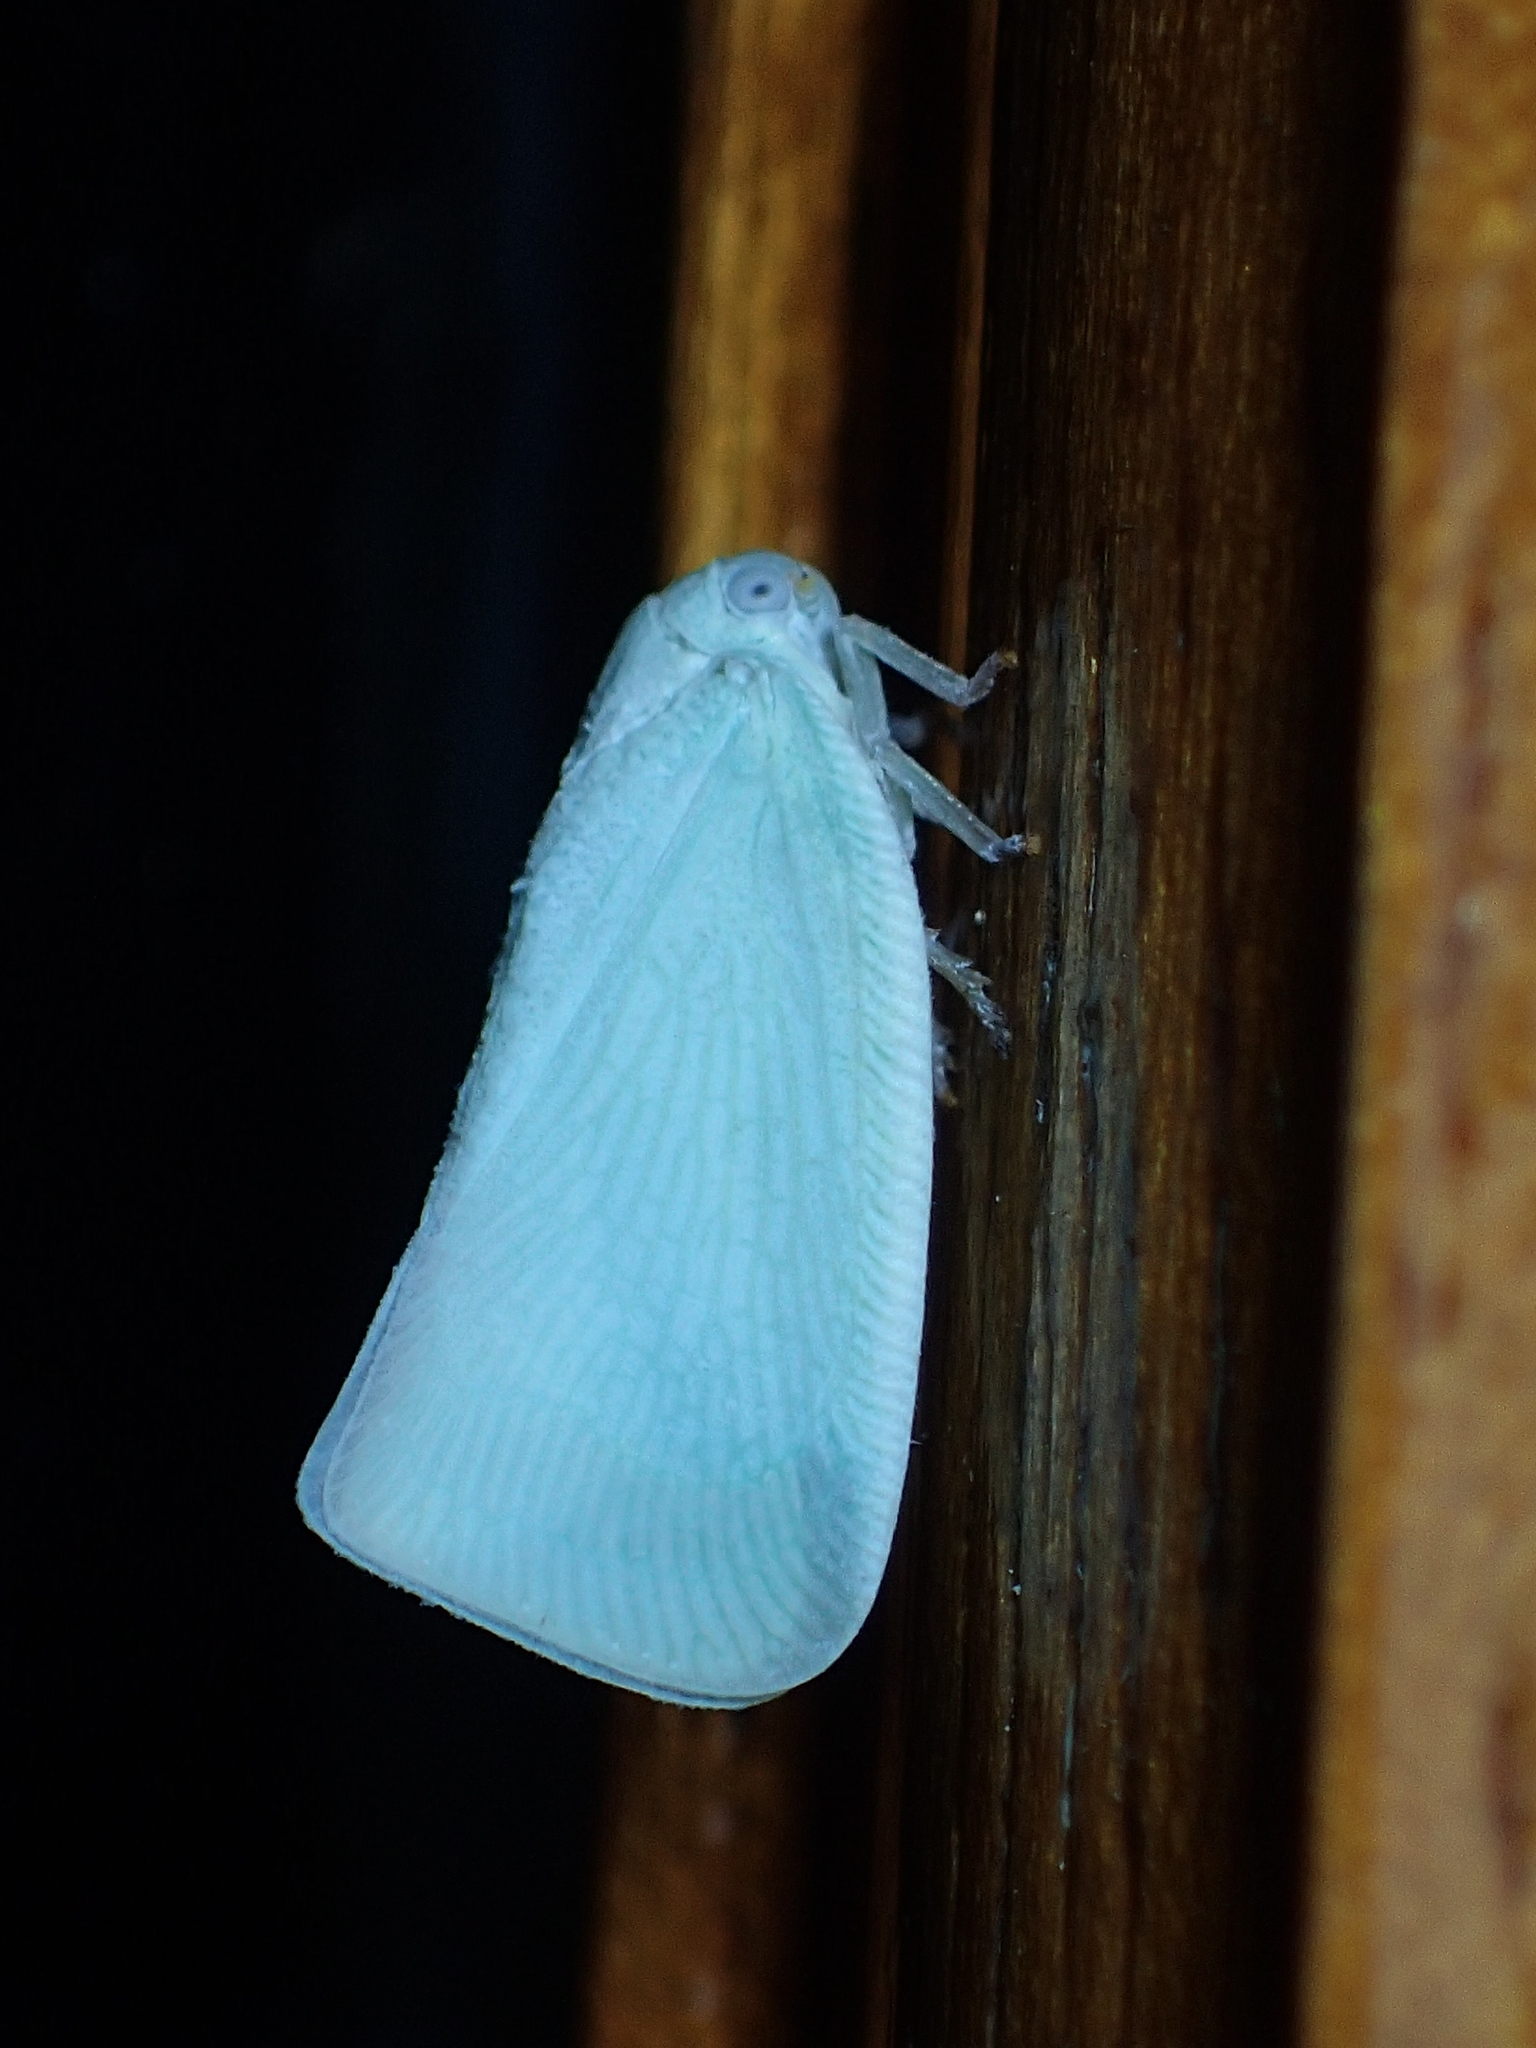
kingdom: Animalia
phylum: Arthropoda
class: Insecta
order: Hemiptera
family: Flatidae
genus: Flatormenis
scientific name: Flatormenis proxima
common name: Northern flatid planthopper
